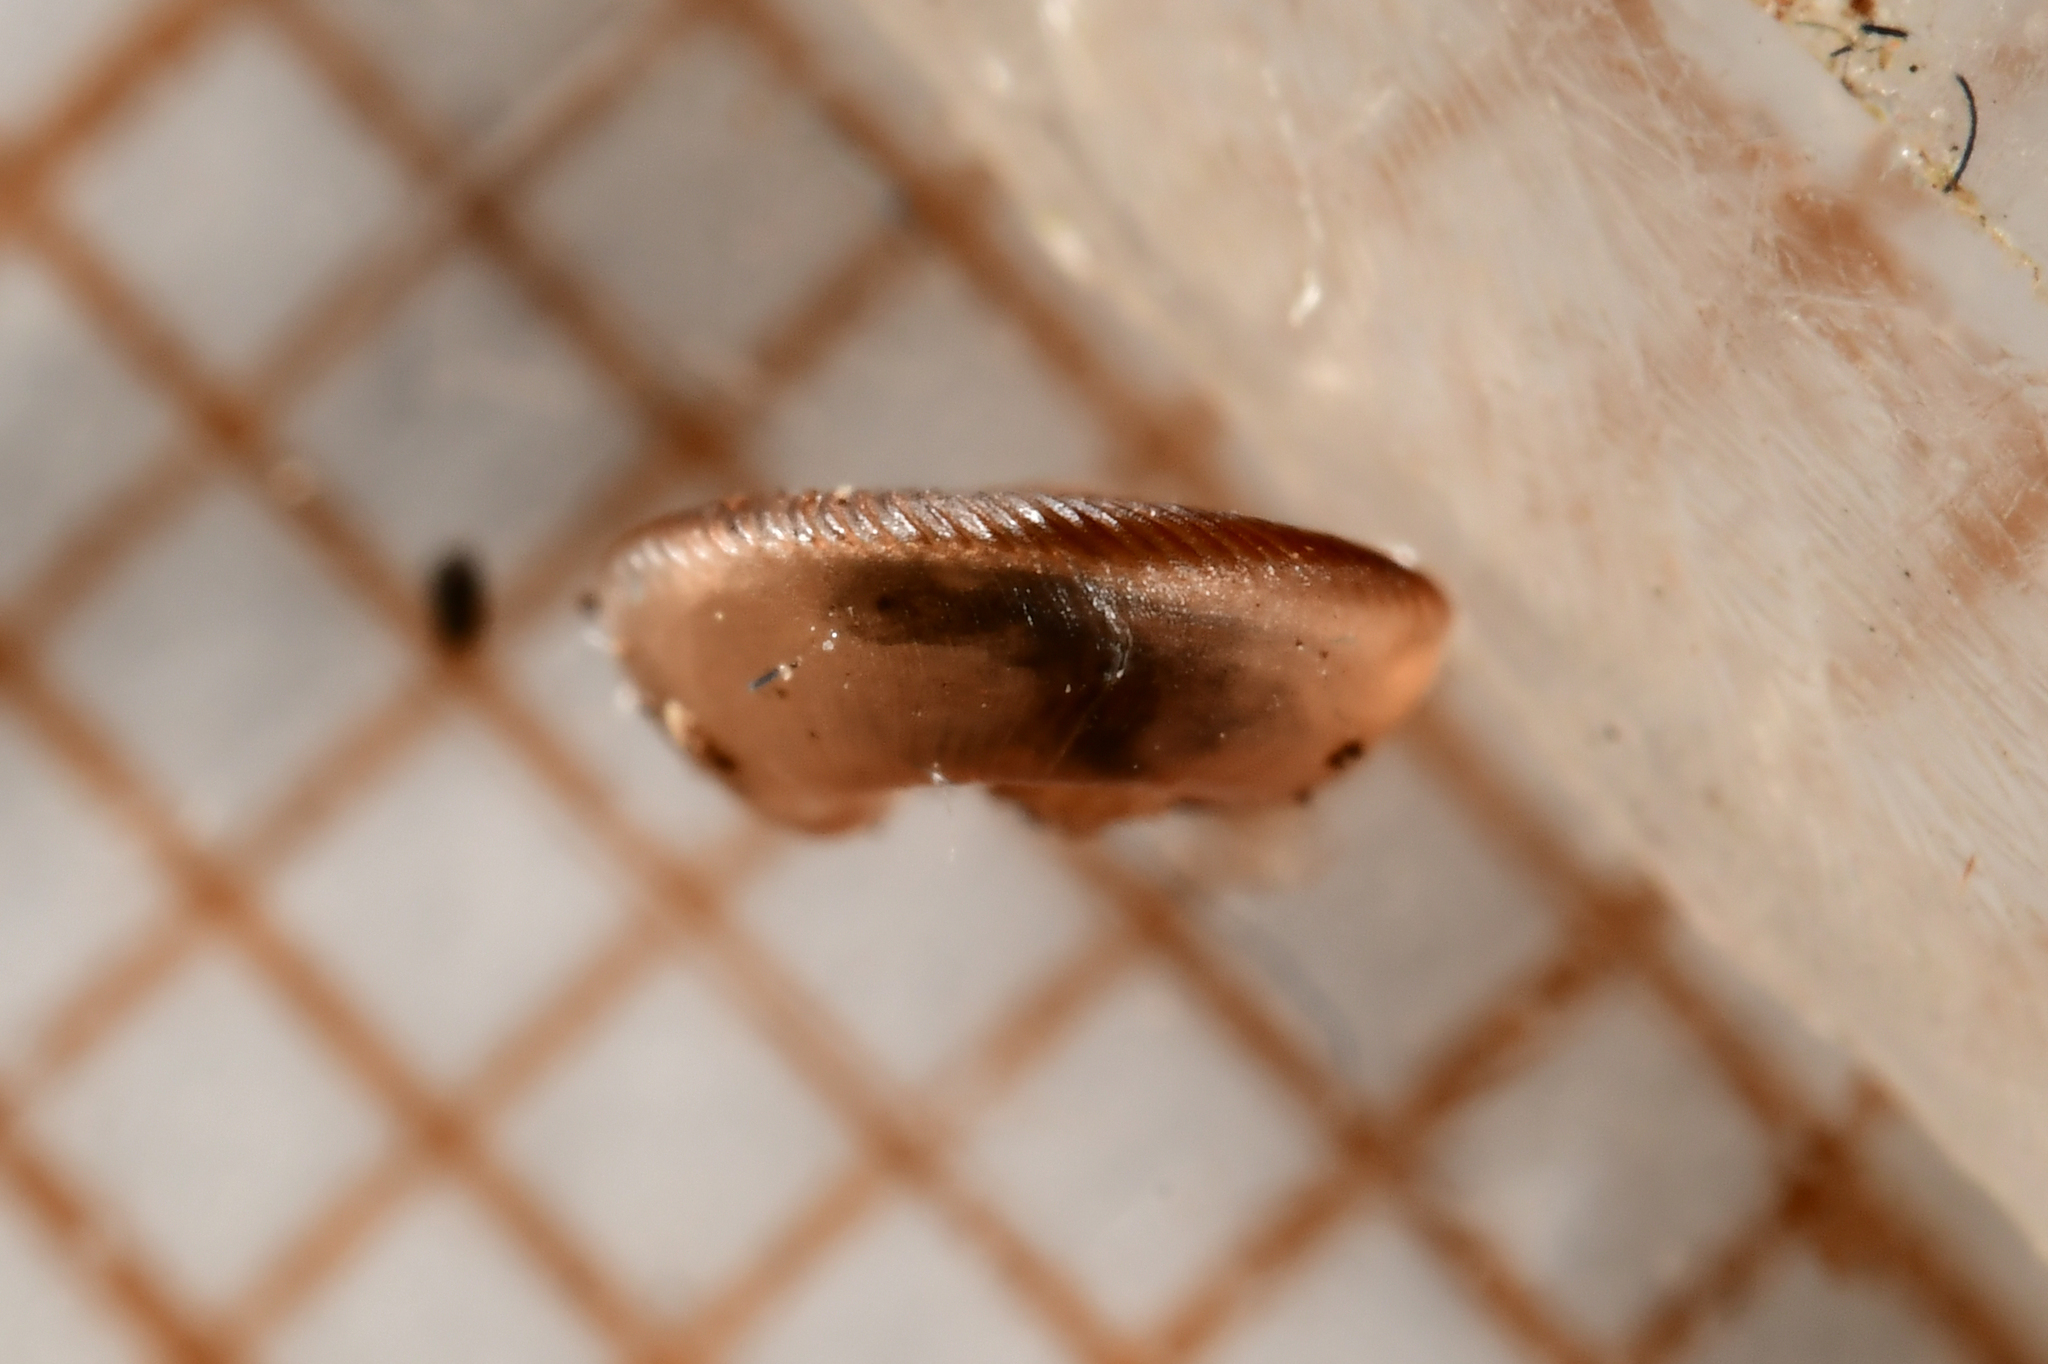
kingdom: Animalia
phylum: Mollusca
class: Gastropoda
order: Stylommatophora
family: Discidae
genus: Discus
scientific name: Discus rotundatus
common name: Rounded snail
